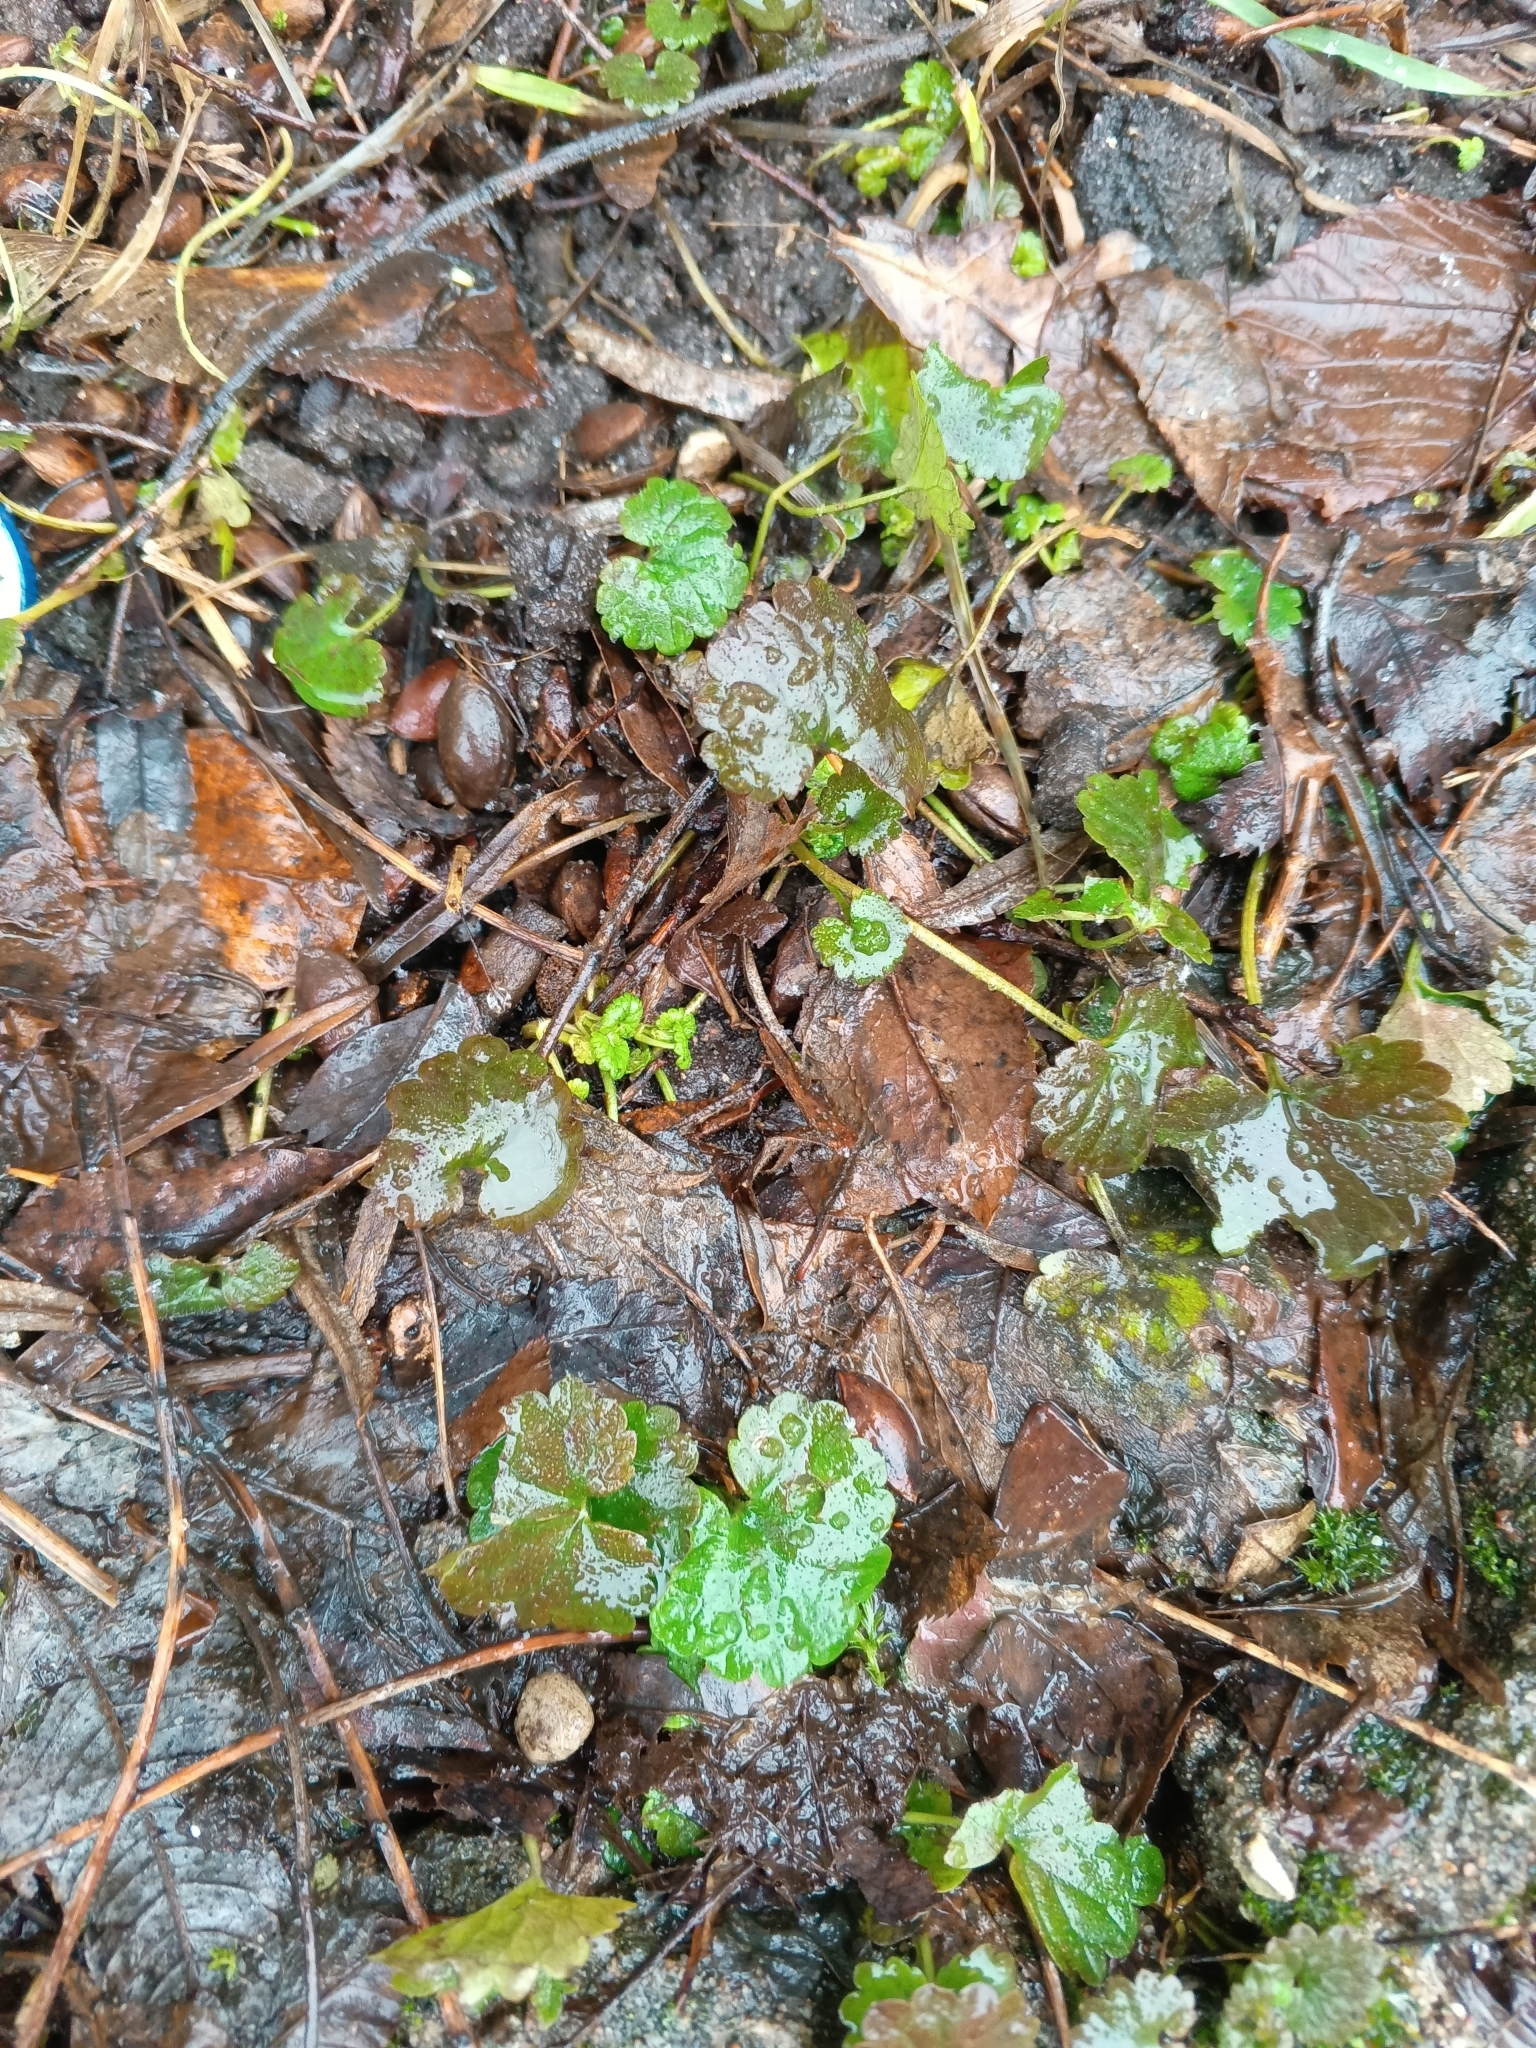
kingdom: Plantae
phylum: Tracheophyta
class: Magnoliopsida
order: Lamiales
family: Lamiaceae
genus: Glechoma
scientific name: Glechoma hederacea
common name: Ground ivy
